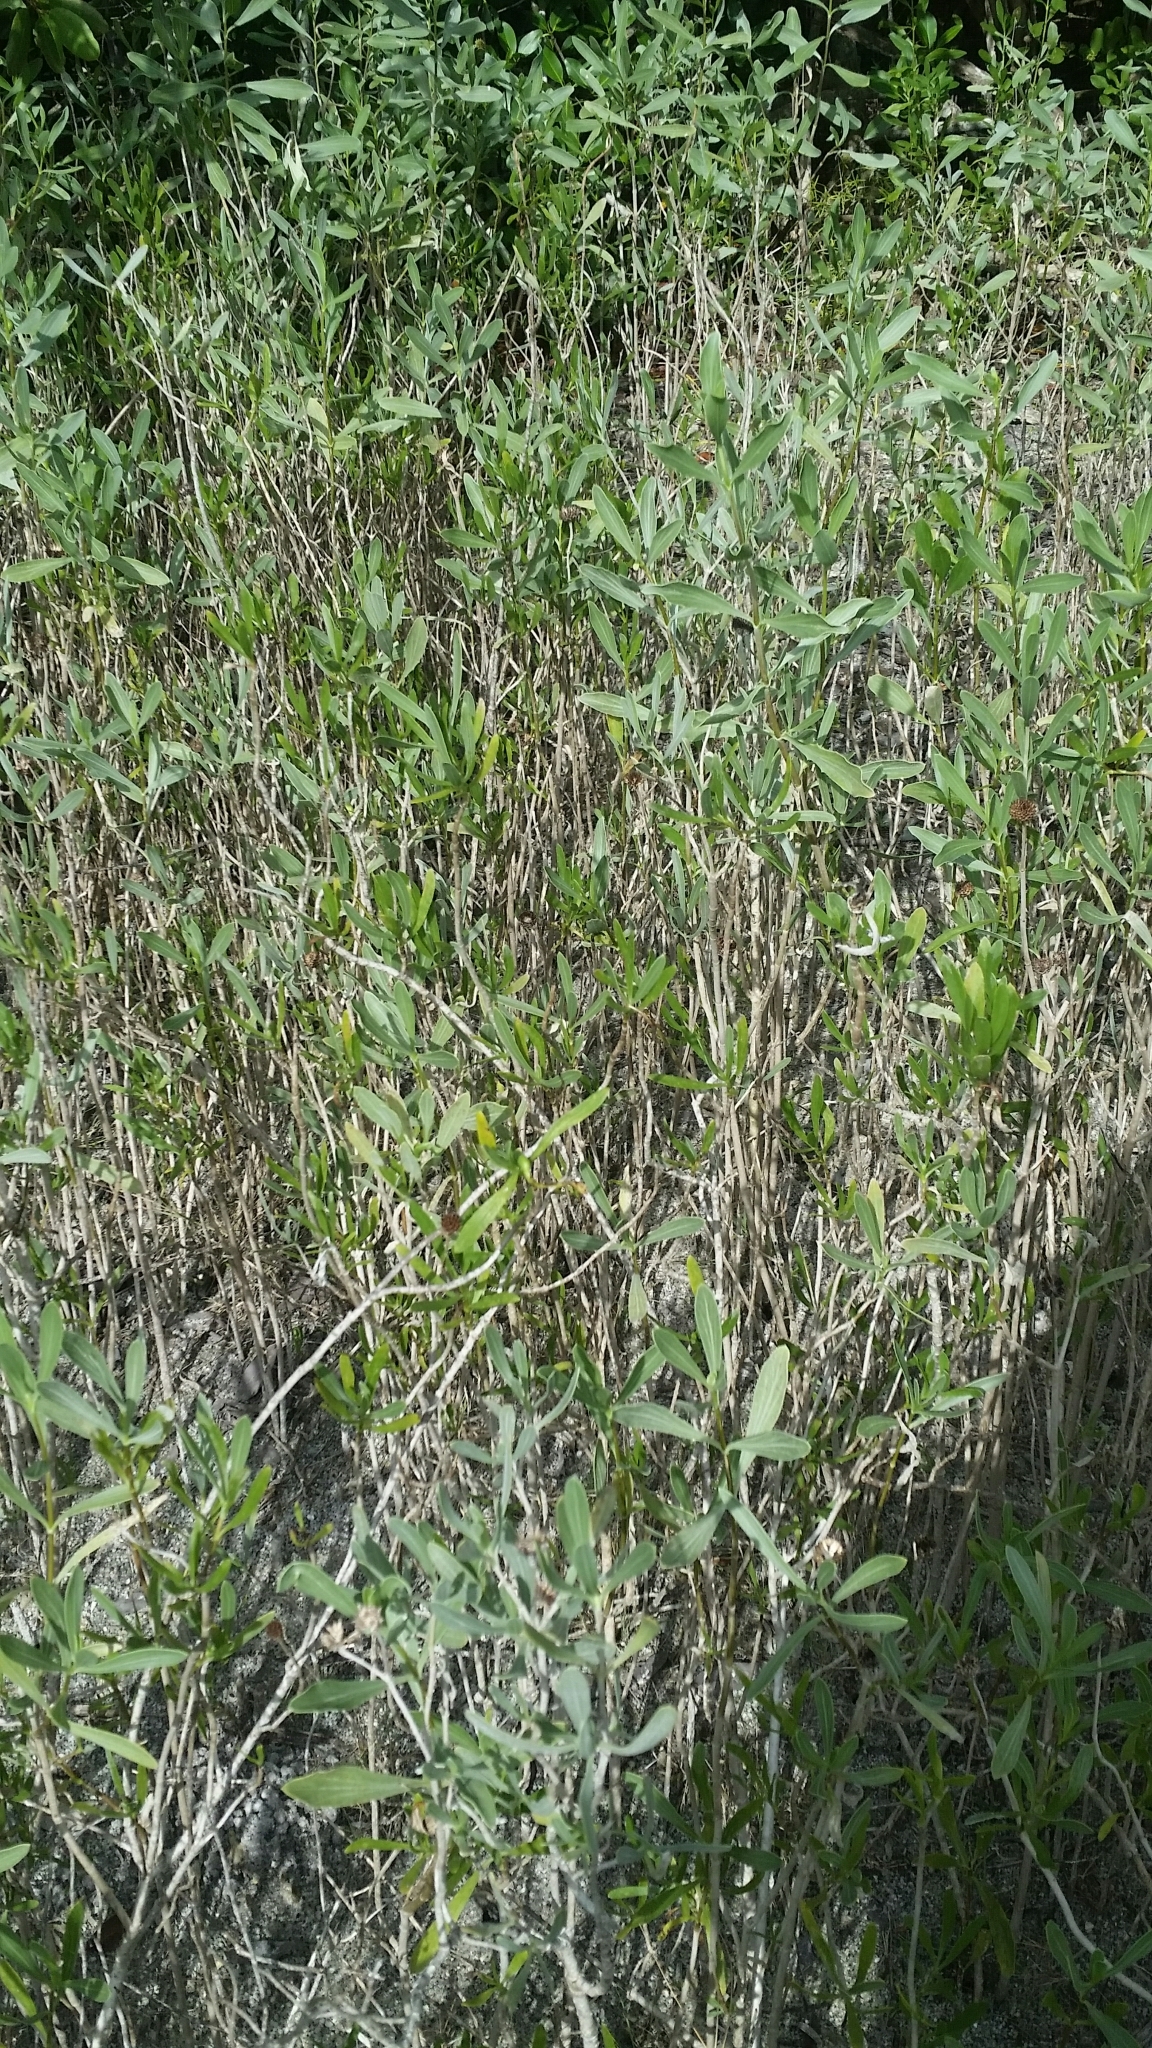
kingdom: Plantae
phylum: Tracheophyta
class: Magnoliopsida
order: Asterales
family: Asteraceae
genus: Borrichia
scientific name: Borrichia frutescens
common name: Sea oxeye
